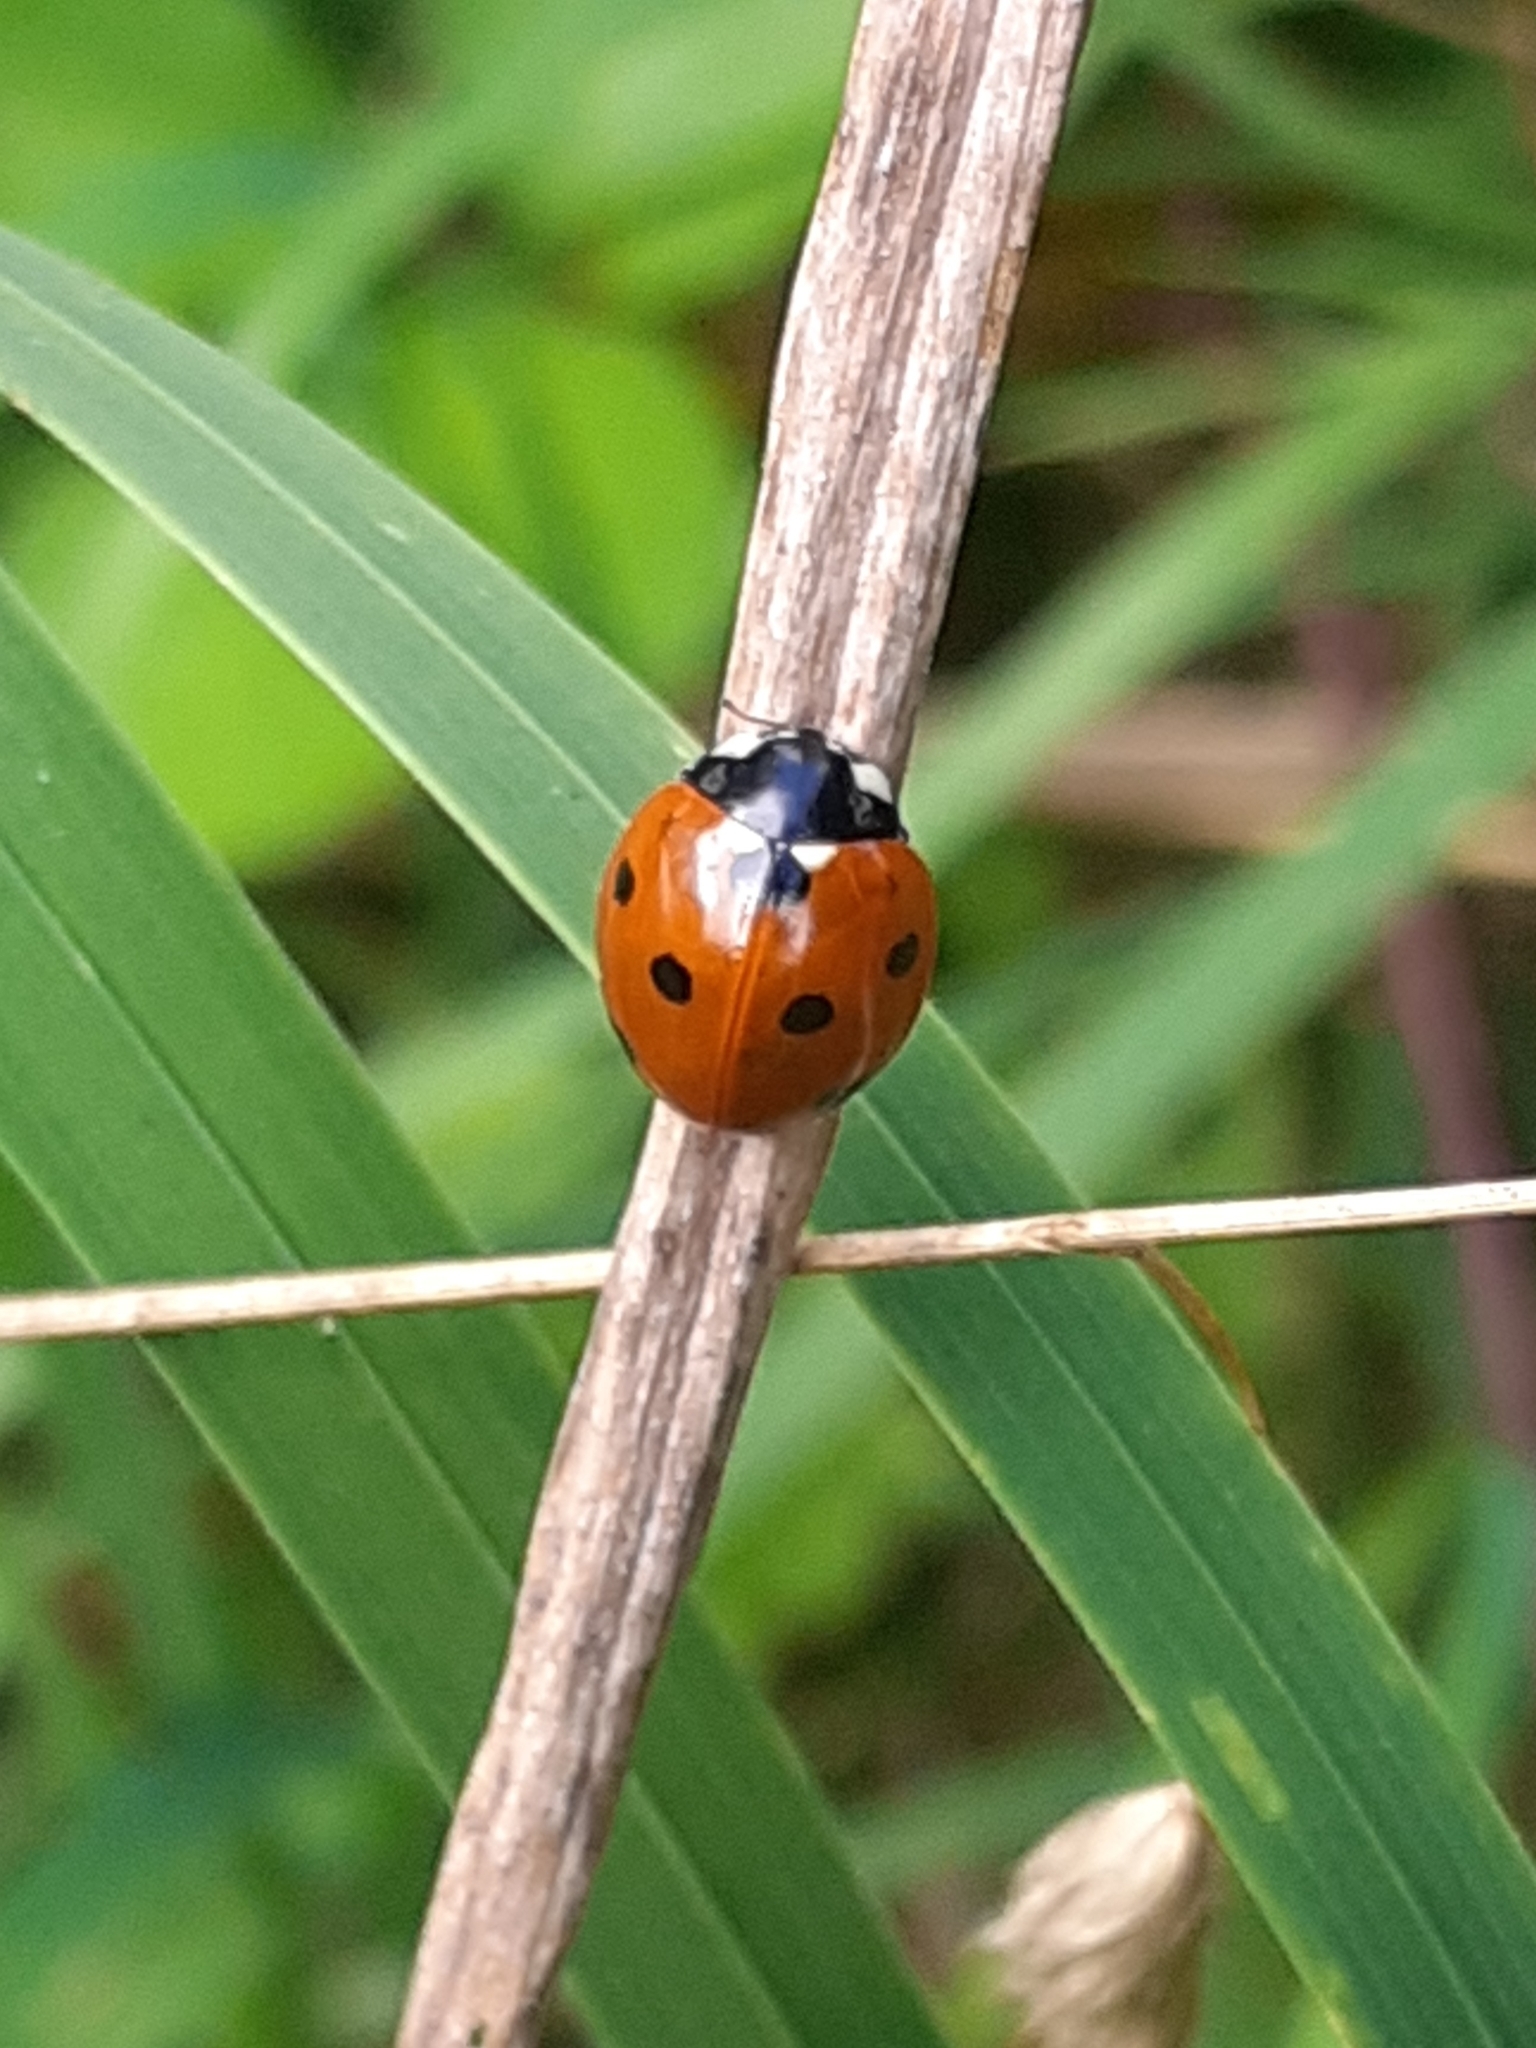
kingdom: Animalia
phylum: Arthropoda
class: Insecta
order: Coleoptera
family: Coccinellidae
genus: Coccinella
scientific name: Coccinella septempunctata
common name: Sevenspotted lady beetle
